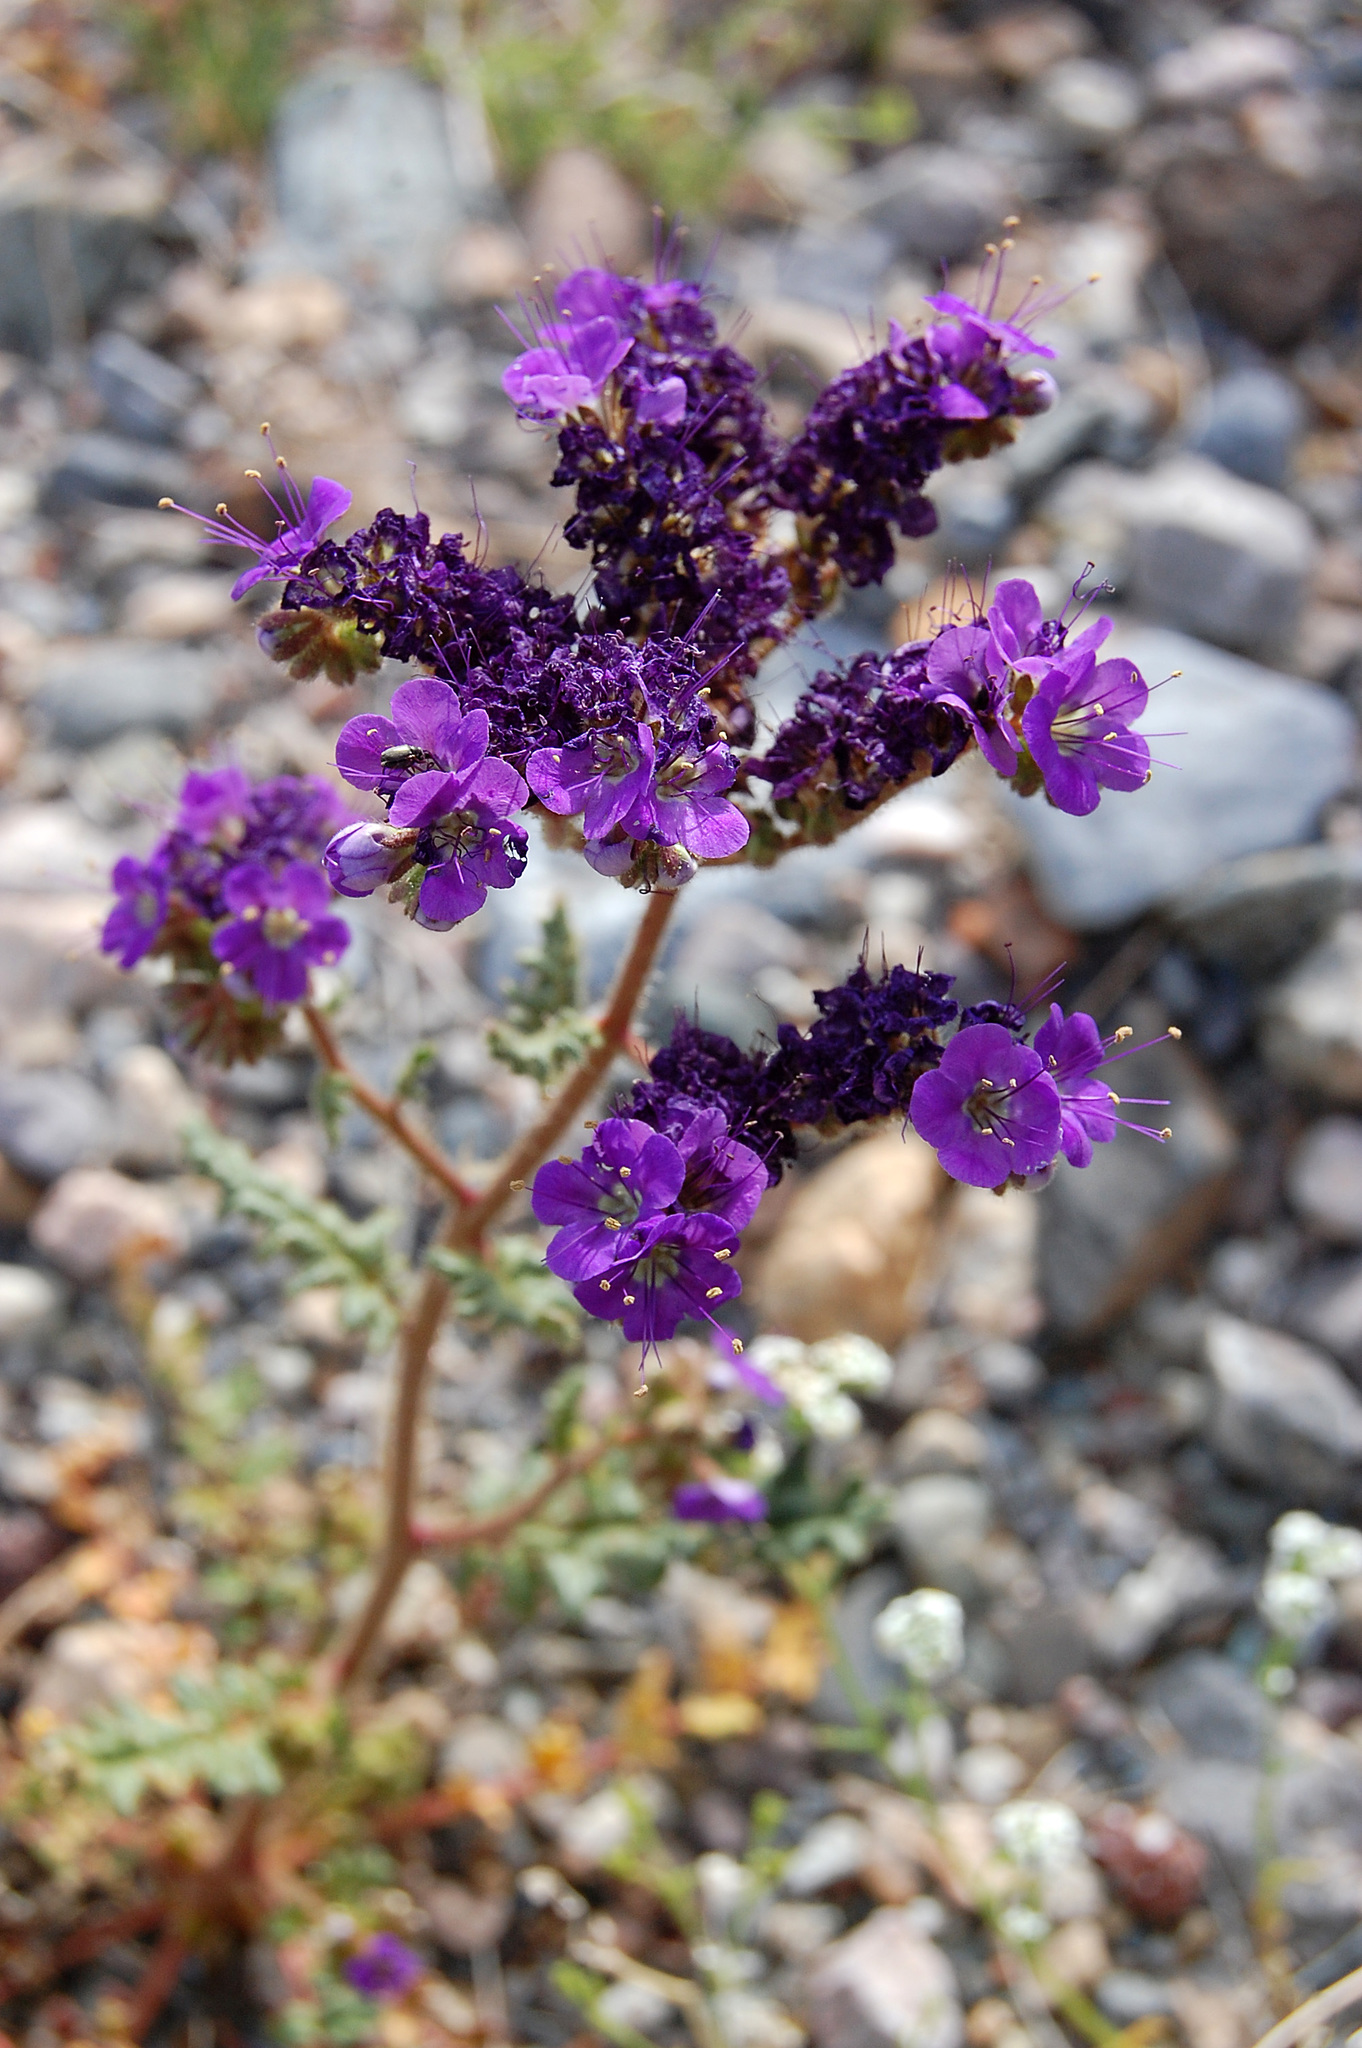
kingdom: Plantae
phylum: Tracheophyta
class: Magnoliopsida
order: Boraginales
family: Hydrophyllaceae
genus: Phacelia
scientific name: Phacelia crenulata
